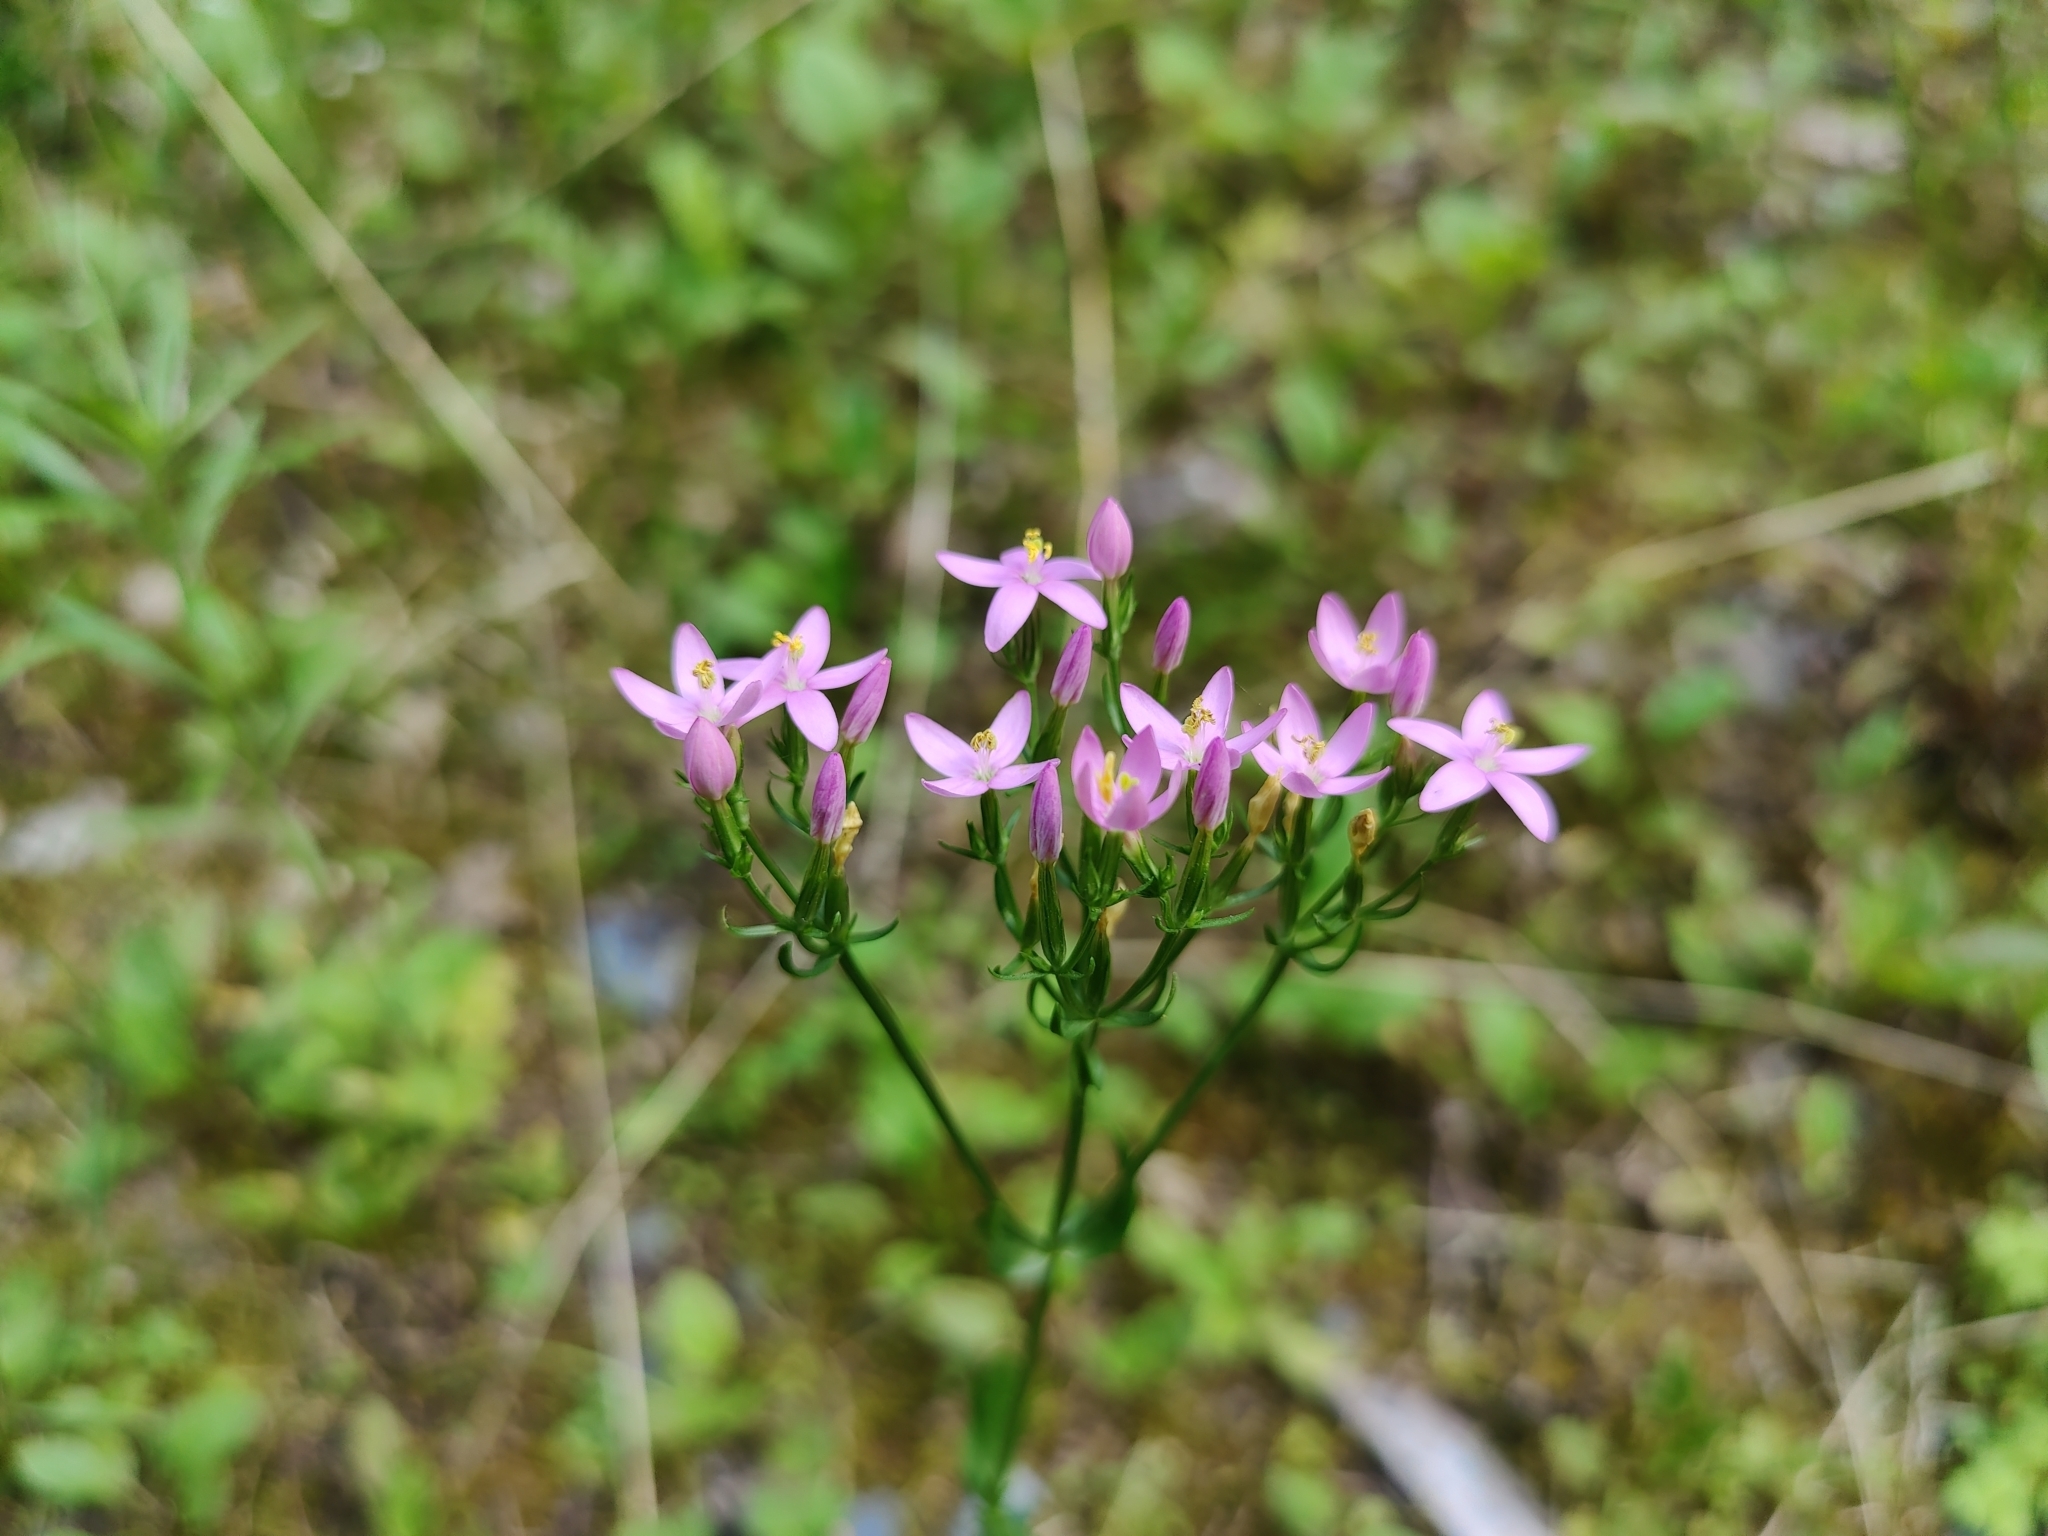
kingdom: Plantae
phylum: Tracheophyta
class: Magnoliopsida
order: Gentianales
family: Gentianaceae
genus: Centaurium
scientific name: Centaurium erythraea
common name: Common centaury
